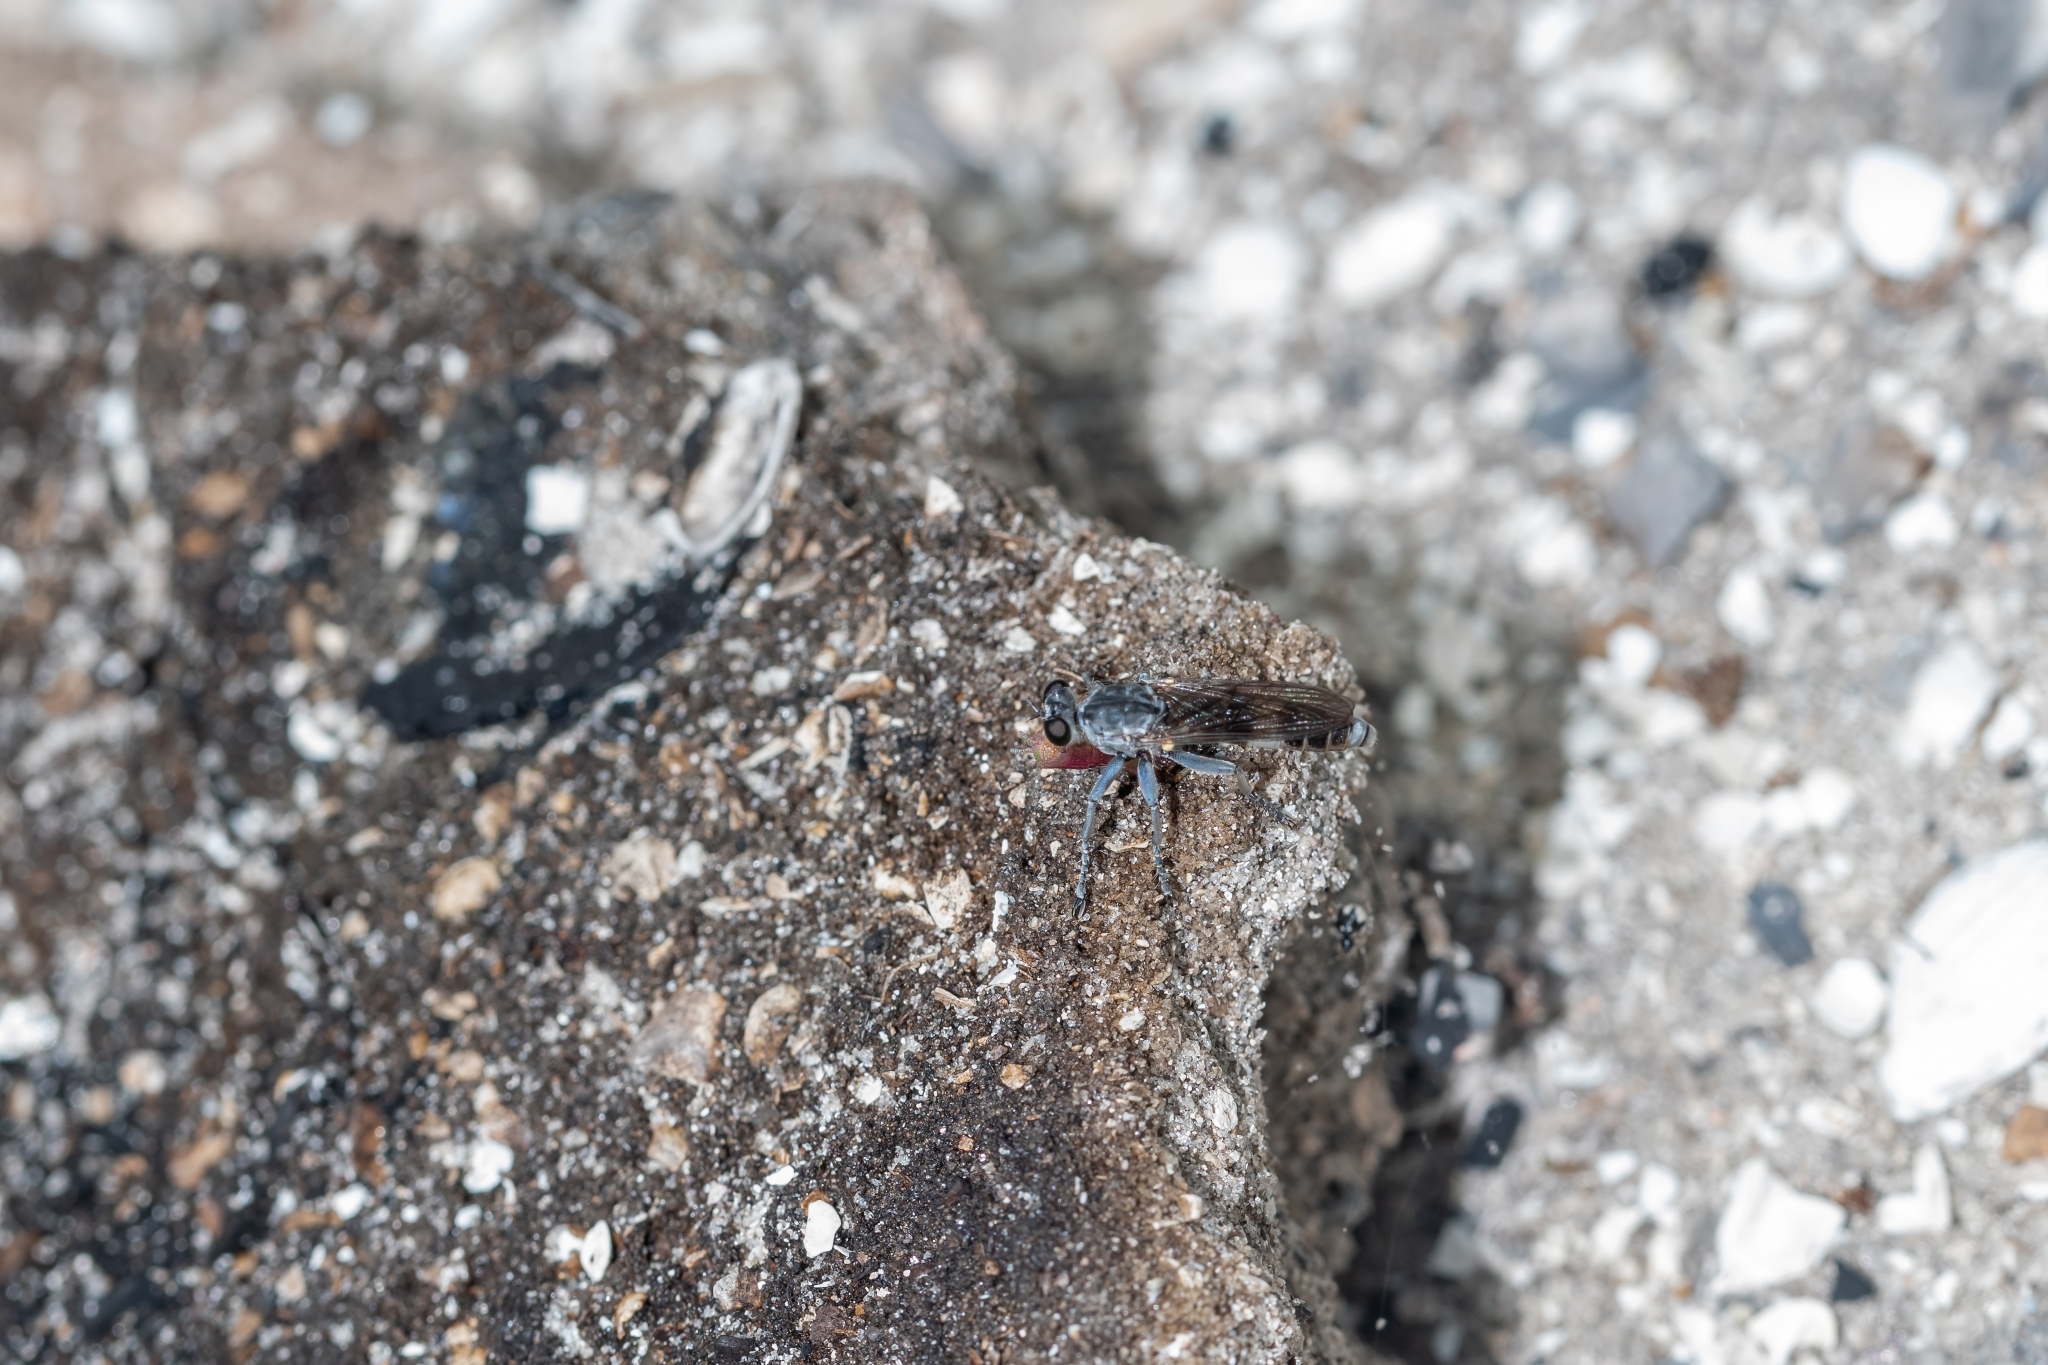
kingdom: Animalia
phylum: Arthropoda
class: Insecta
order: Diptera
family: Asilidae
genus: Stichopogon
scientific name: Stichopogon trifasciatus
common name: Three-banded robber fly
